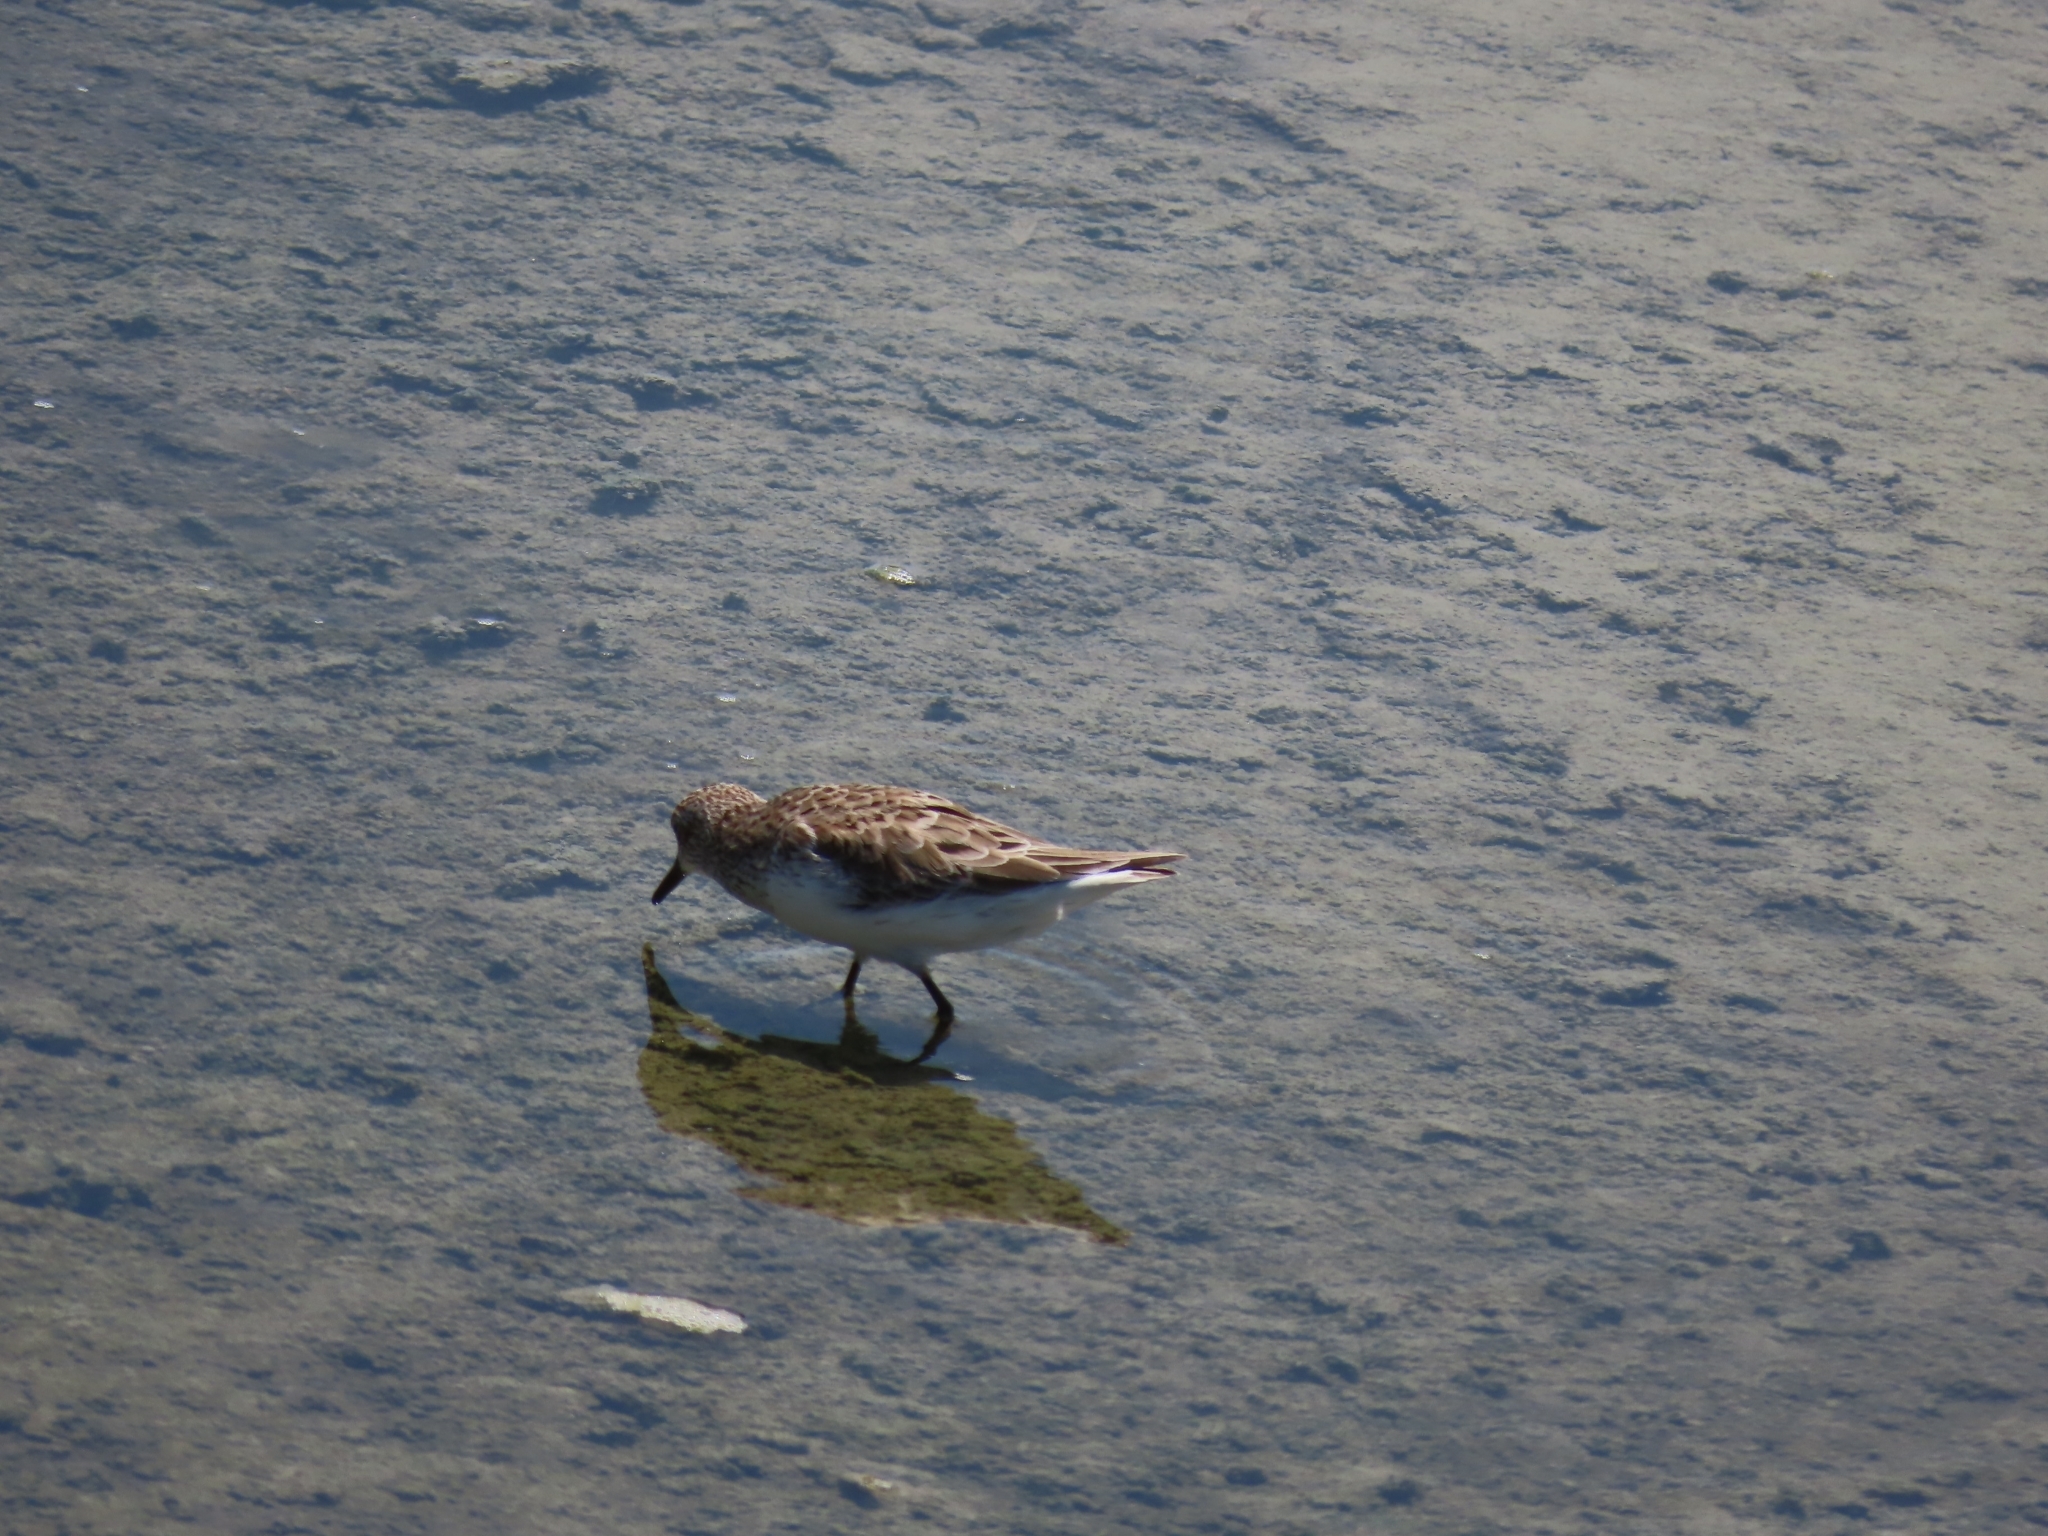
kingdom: Animalia
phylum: Chordata
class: Aves
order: Charadriiformes
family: Scolopacidae
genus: Calidris
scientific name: Calidris minutilla
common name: Least sandpiper
